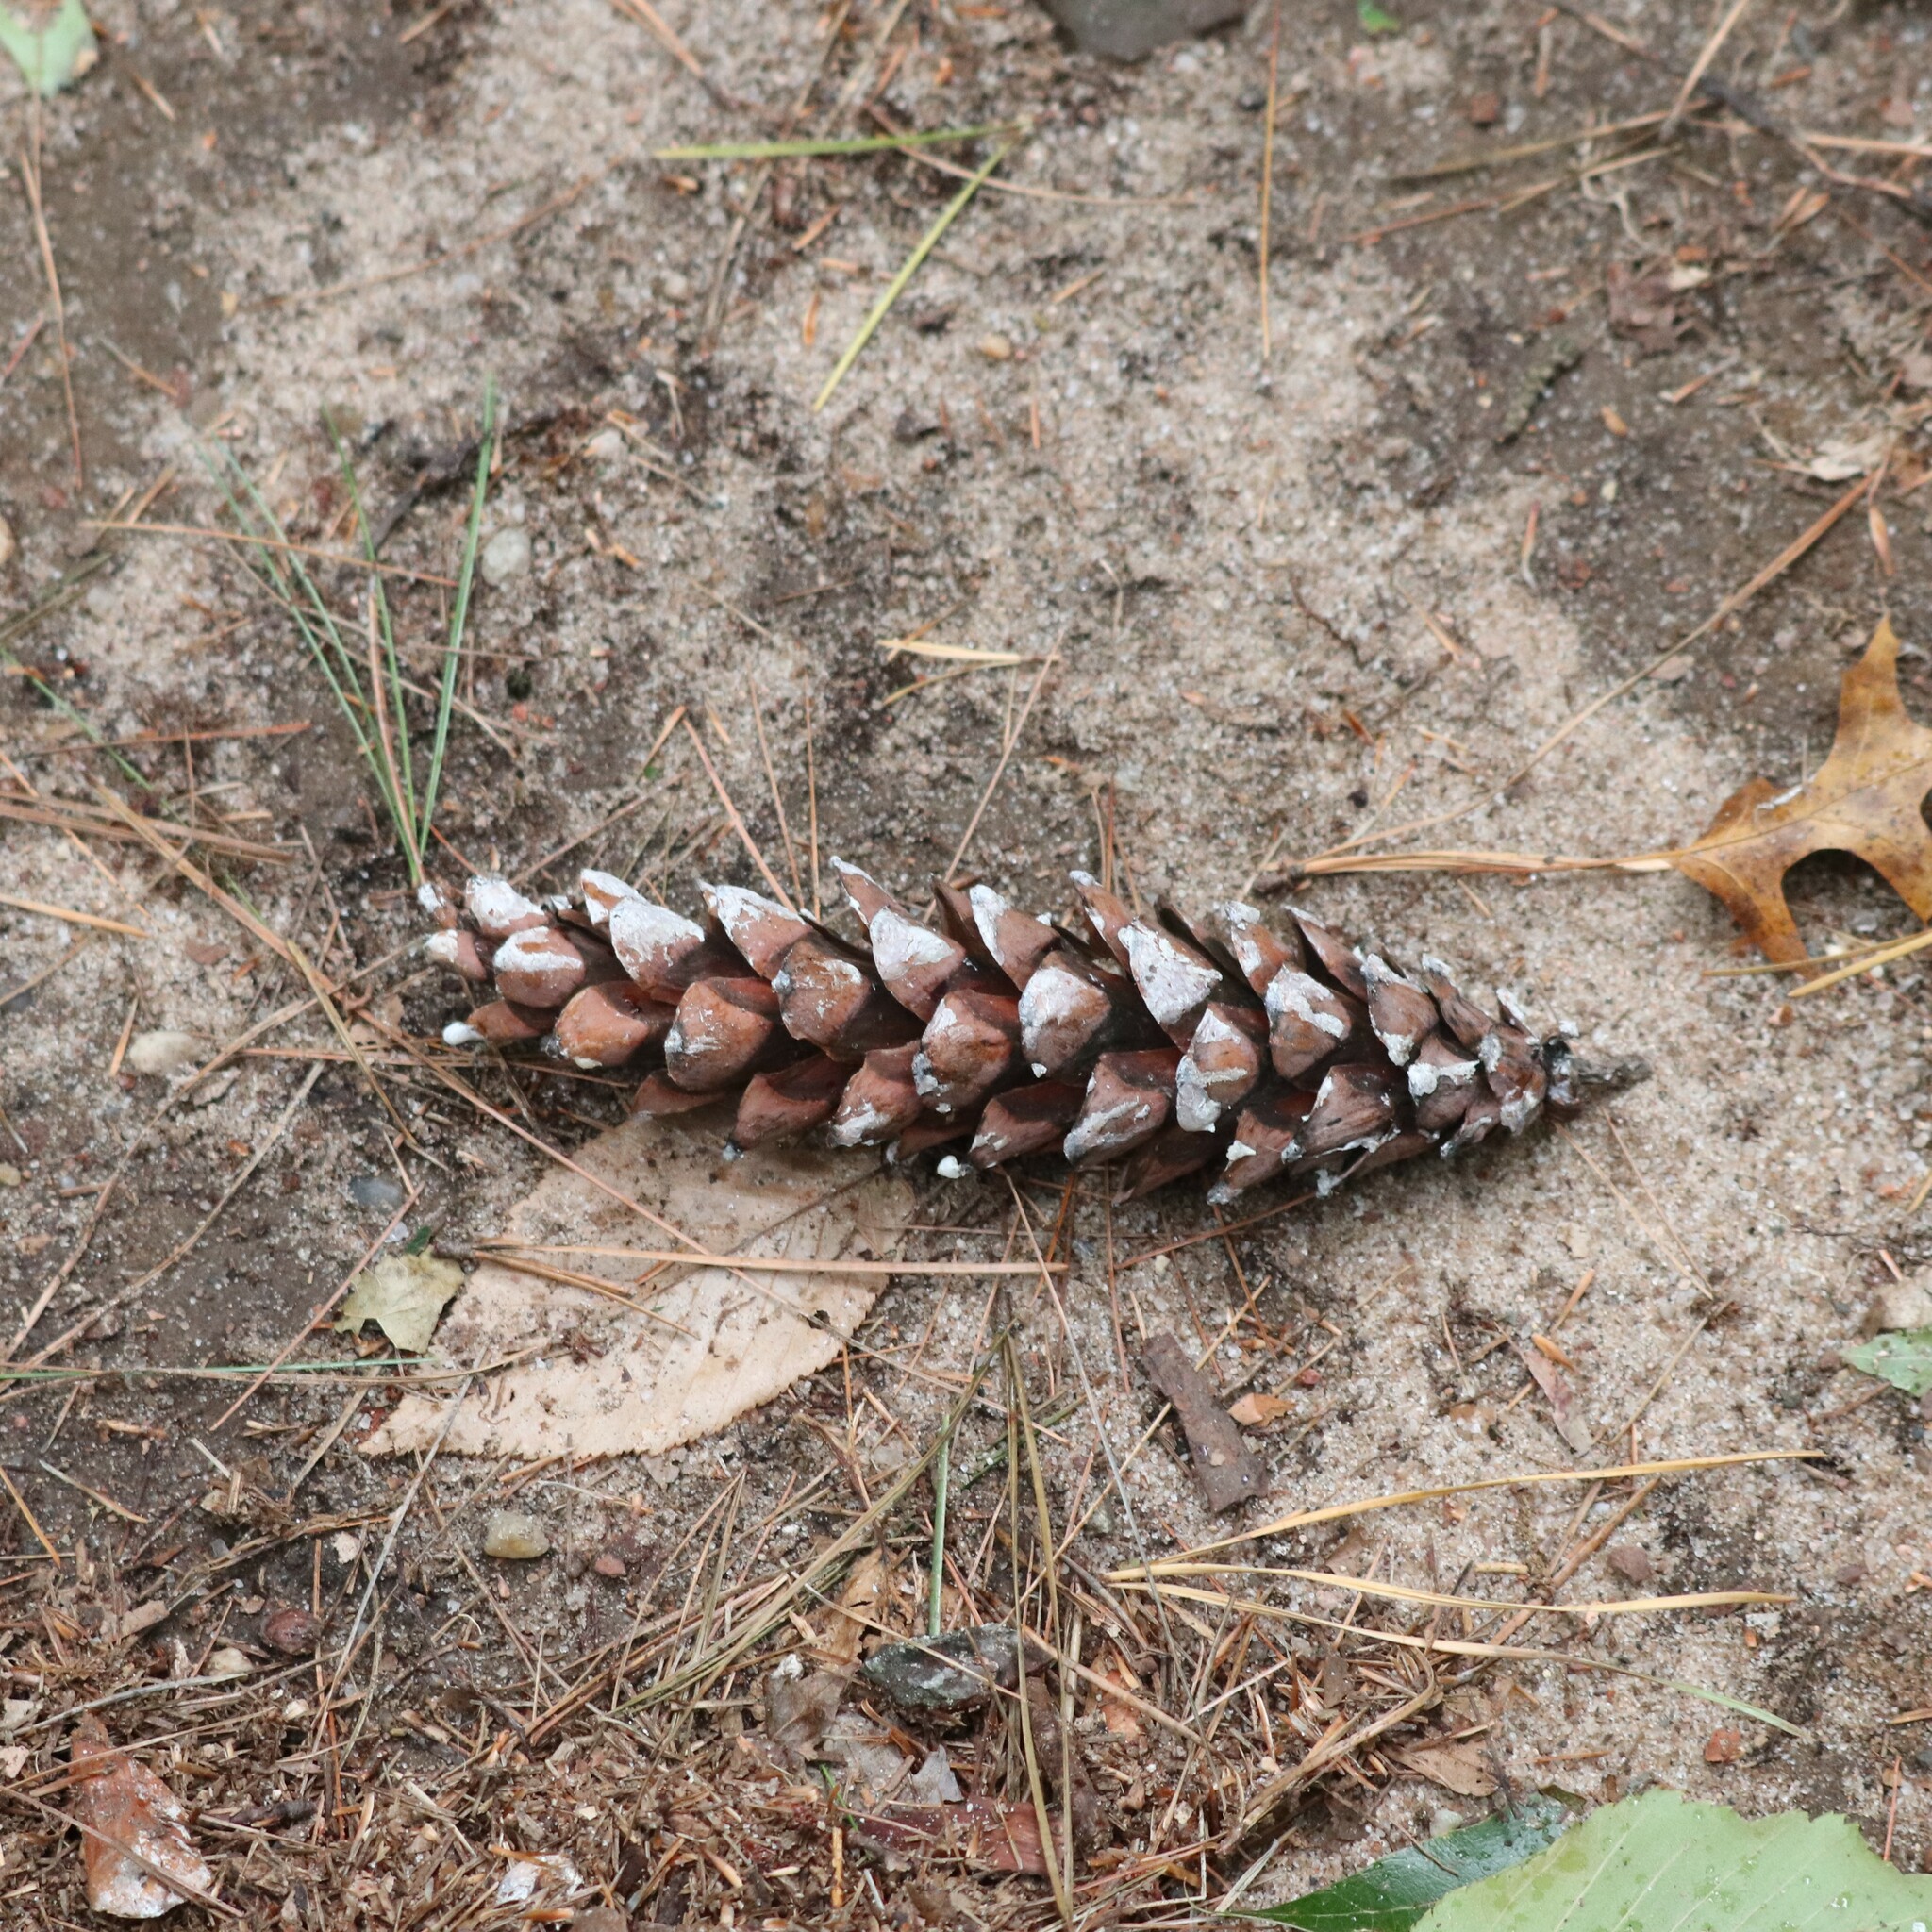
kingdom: Plantae
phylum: Tracheophyta
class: Pinopsida
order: Pinales
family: Pinaceae
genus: Pinus
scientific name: Pinus strobus
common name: Weymouth pine
